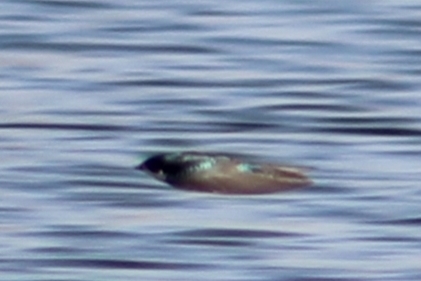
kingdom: Animalia
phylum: Chordata
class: Aves
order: Passeriformes
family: Hirundinidae
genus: Tachycineta
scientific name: Tachycineta bicolor
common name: Tree swallow
